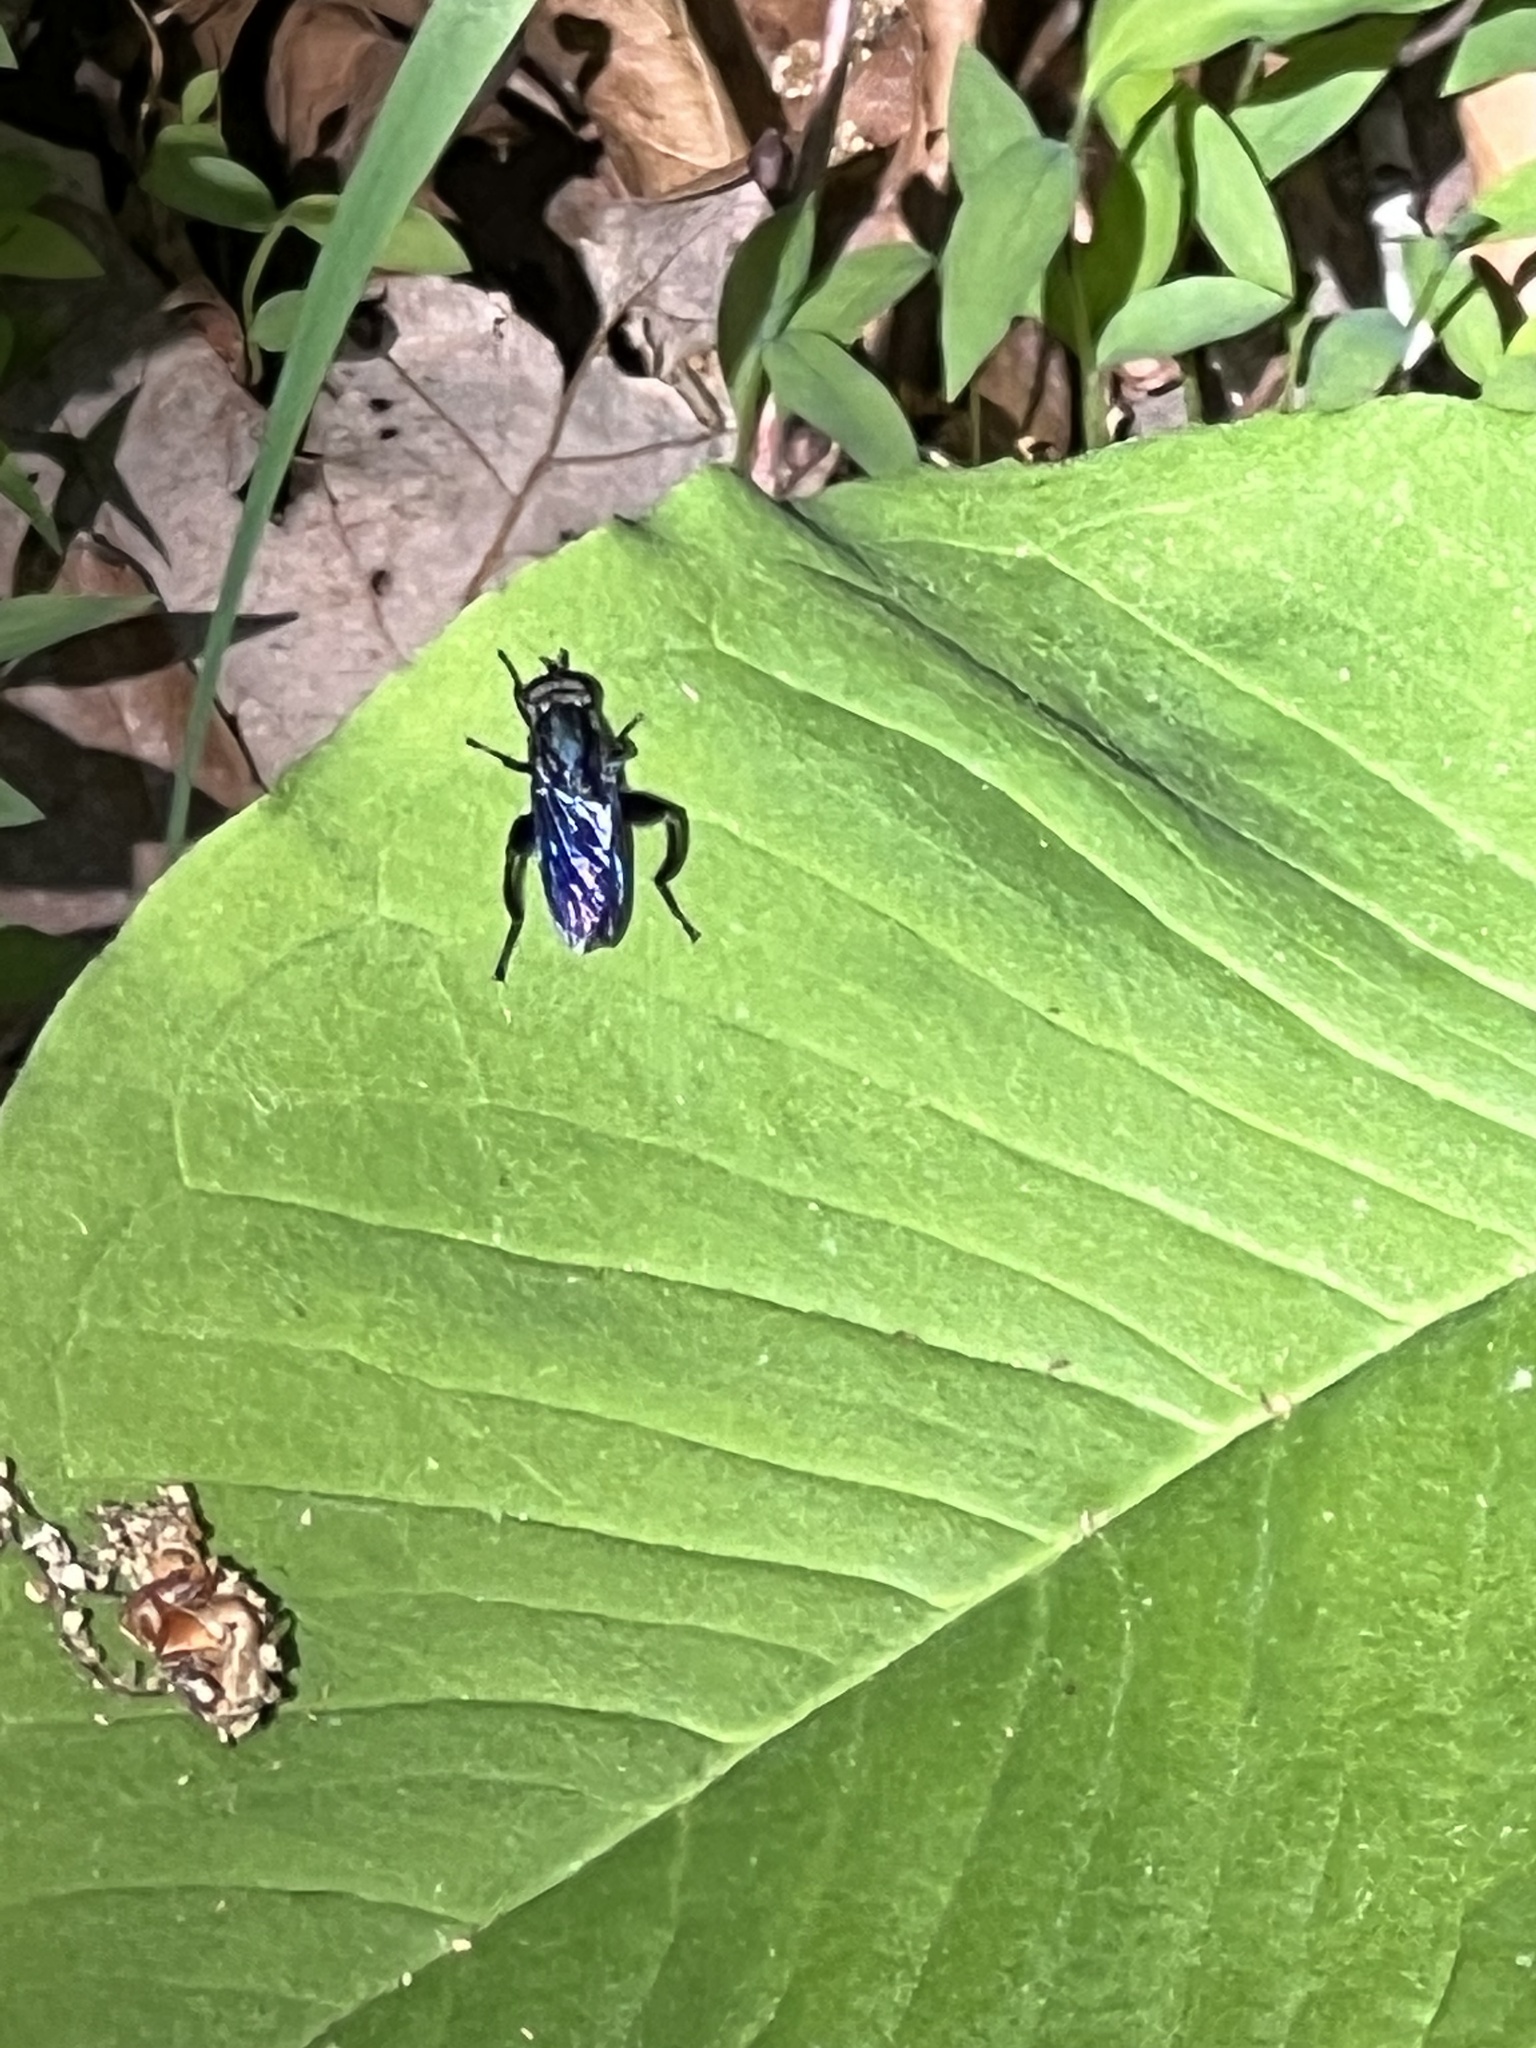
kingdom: Animalia
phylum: Arthropoda
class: Insecta
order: Diptera
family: Syrphidae
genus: Chalcosyrphus
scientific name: Chalcosyrphus chalybeus
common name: Violet leafwalker
